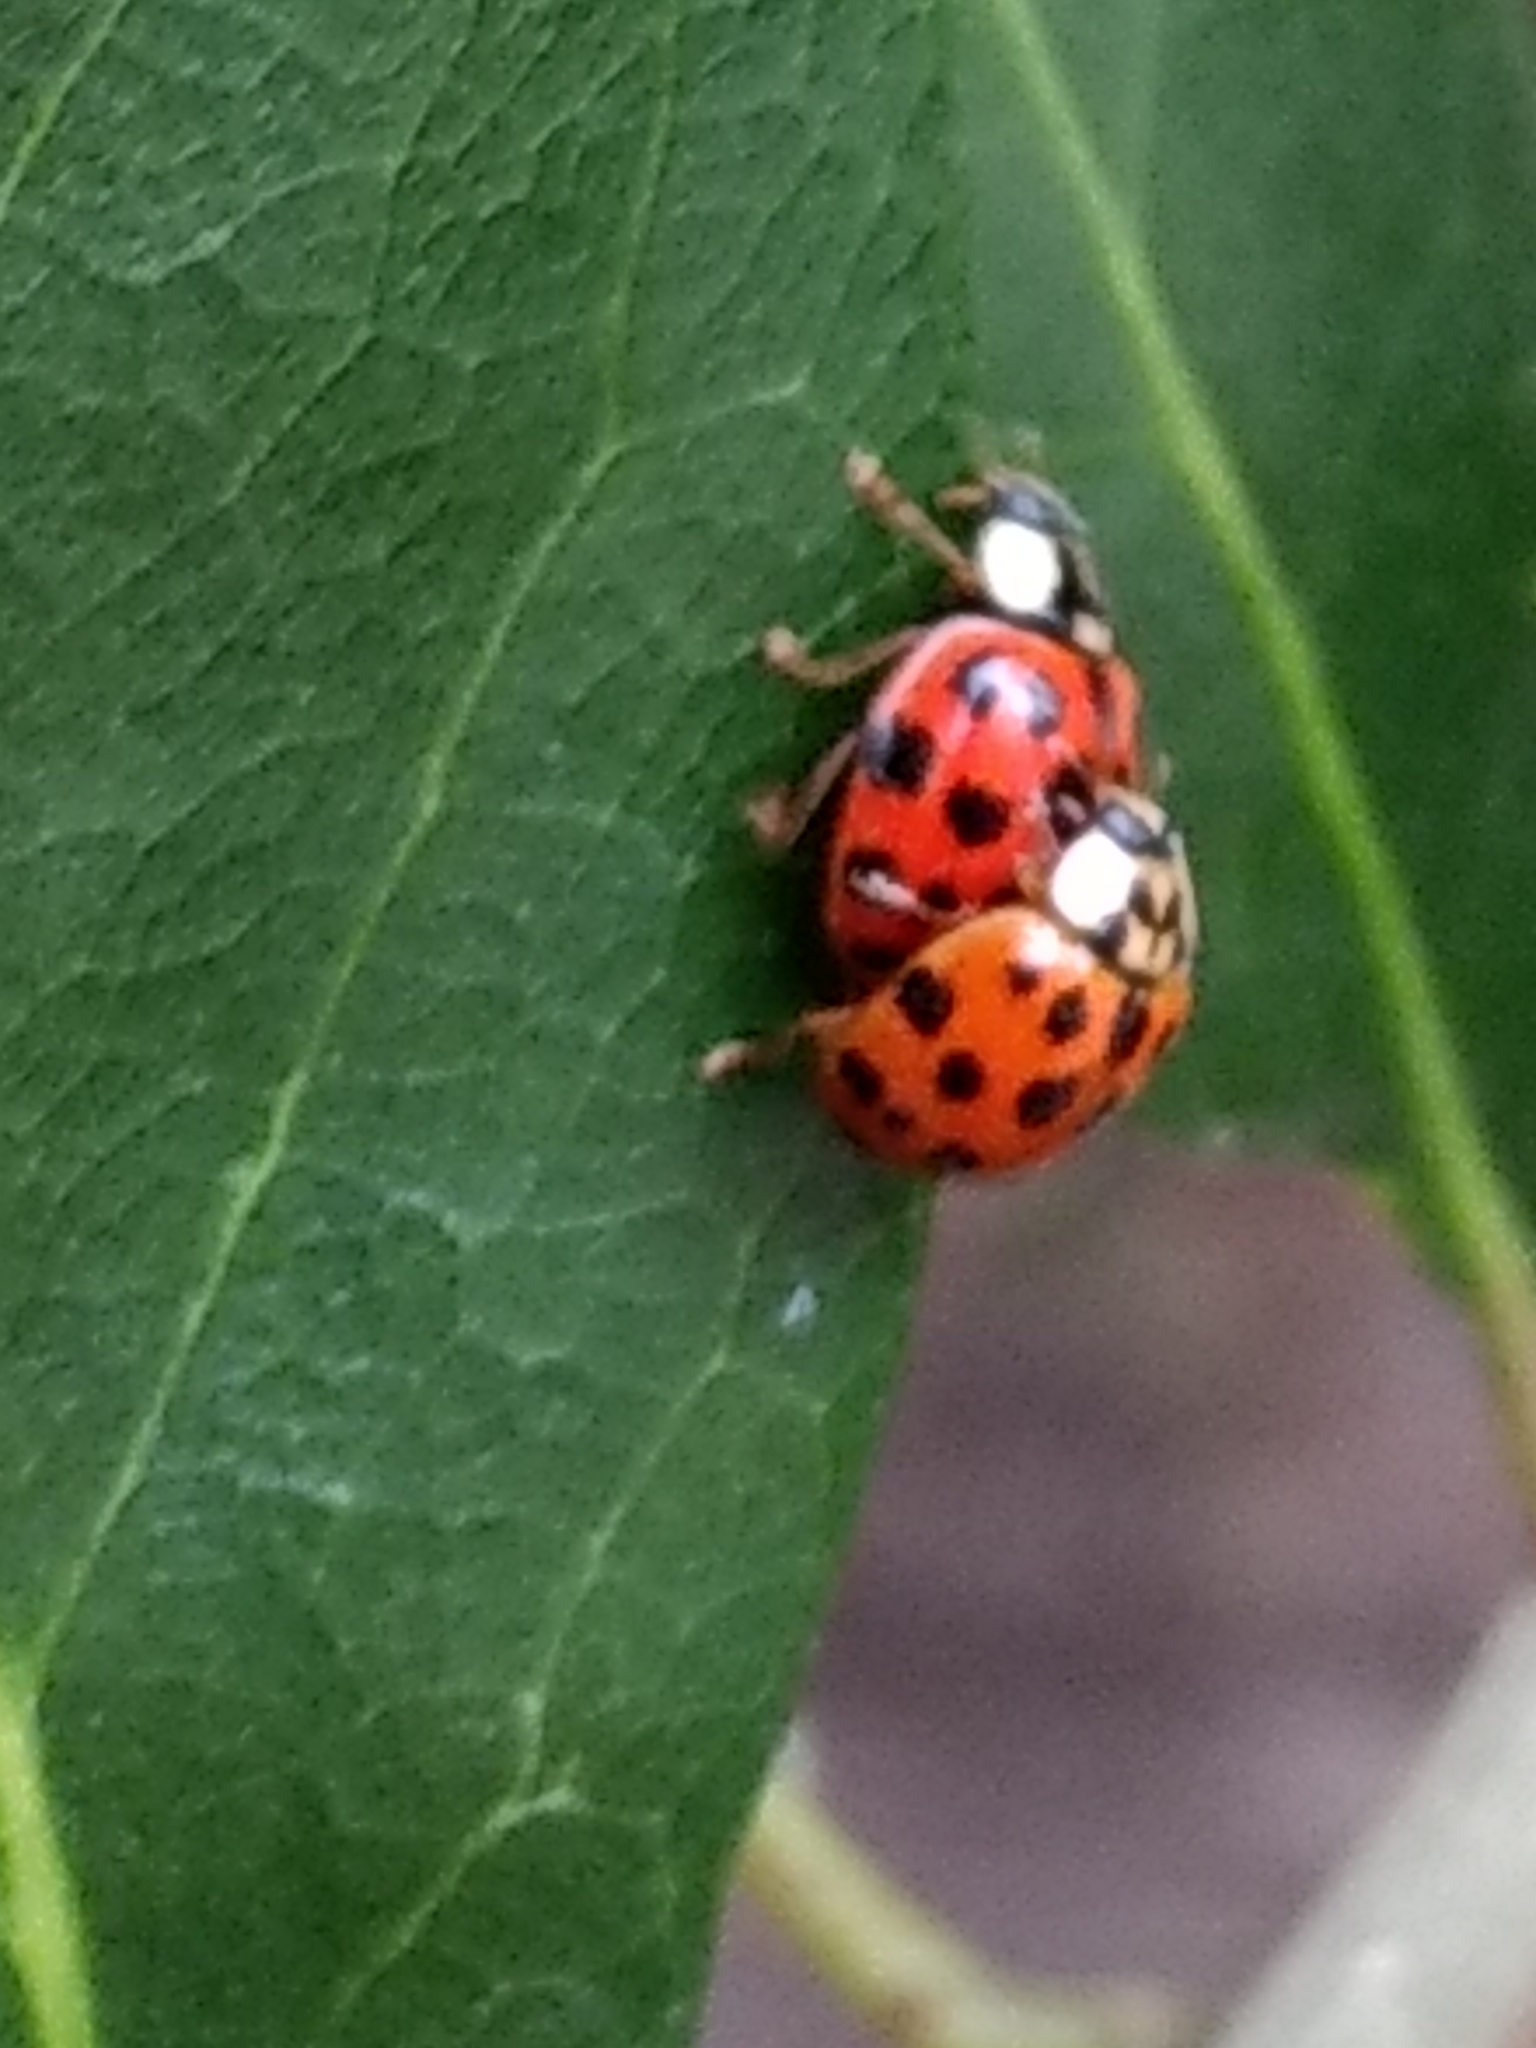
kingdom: Animalia
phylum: Arthropoda
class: Insecta
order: Coleoptera
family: Coccinellidae
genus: Harmonia
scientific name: Harmonia axyridis
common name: Harlequin ladybird
